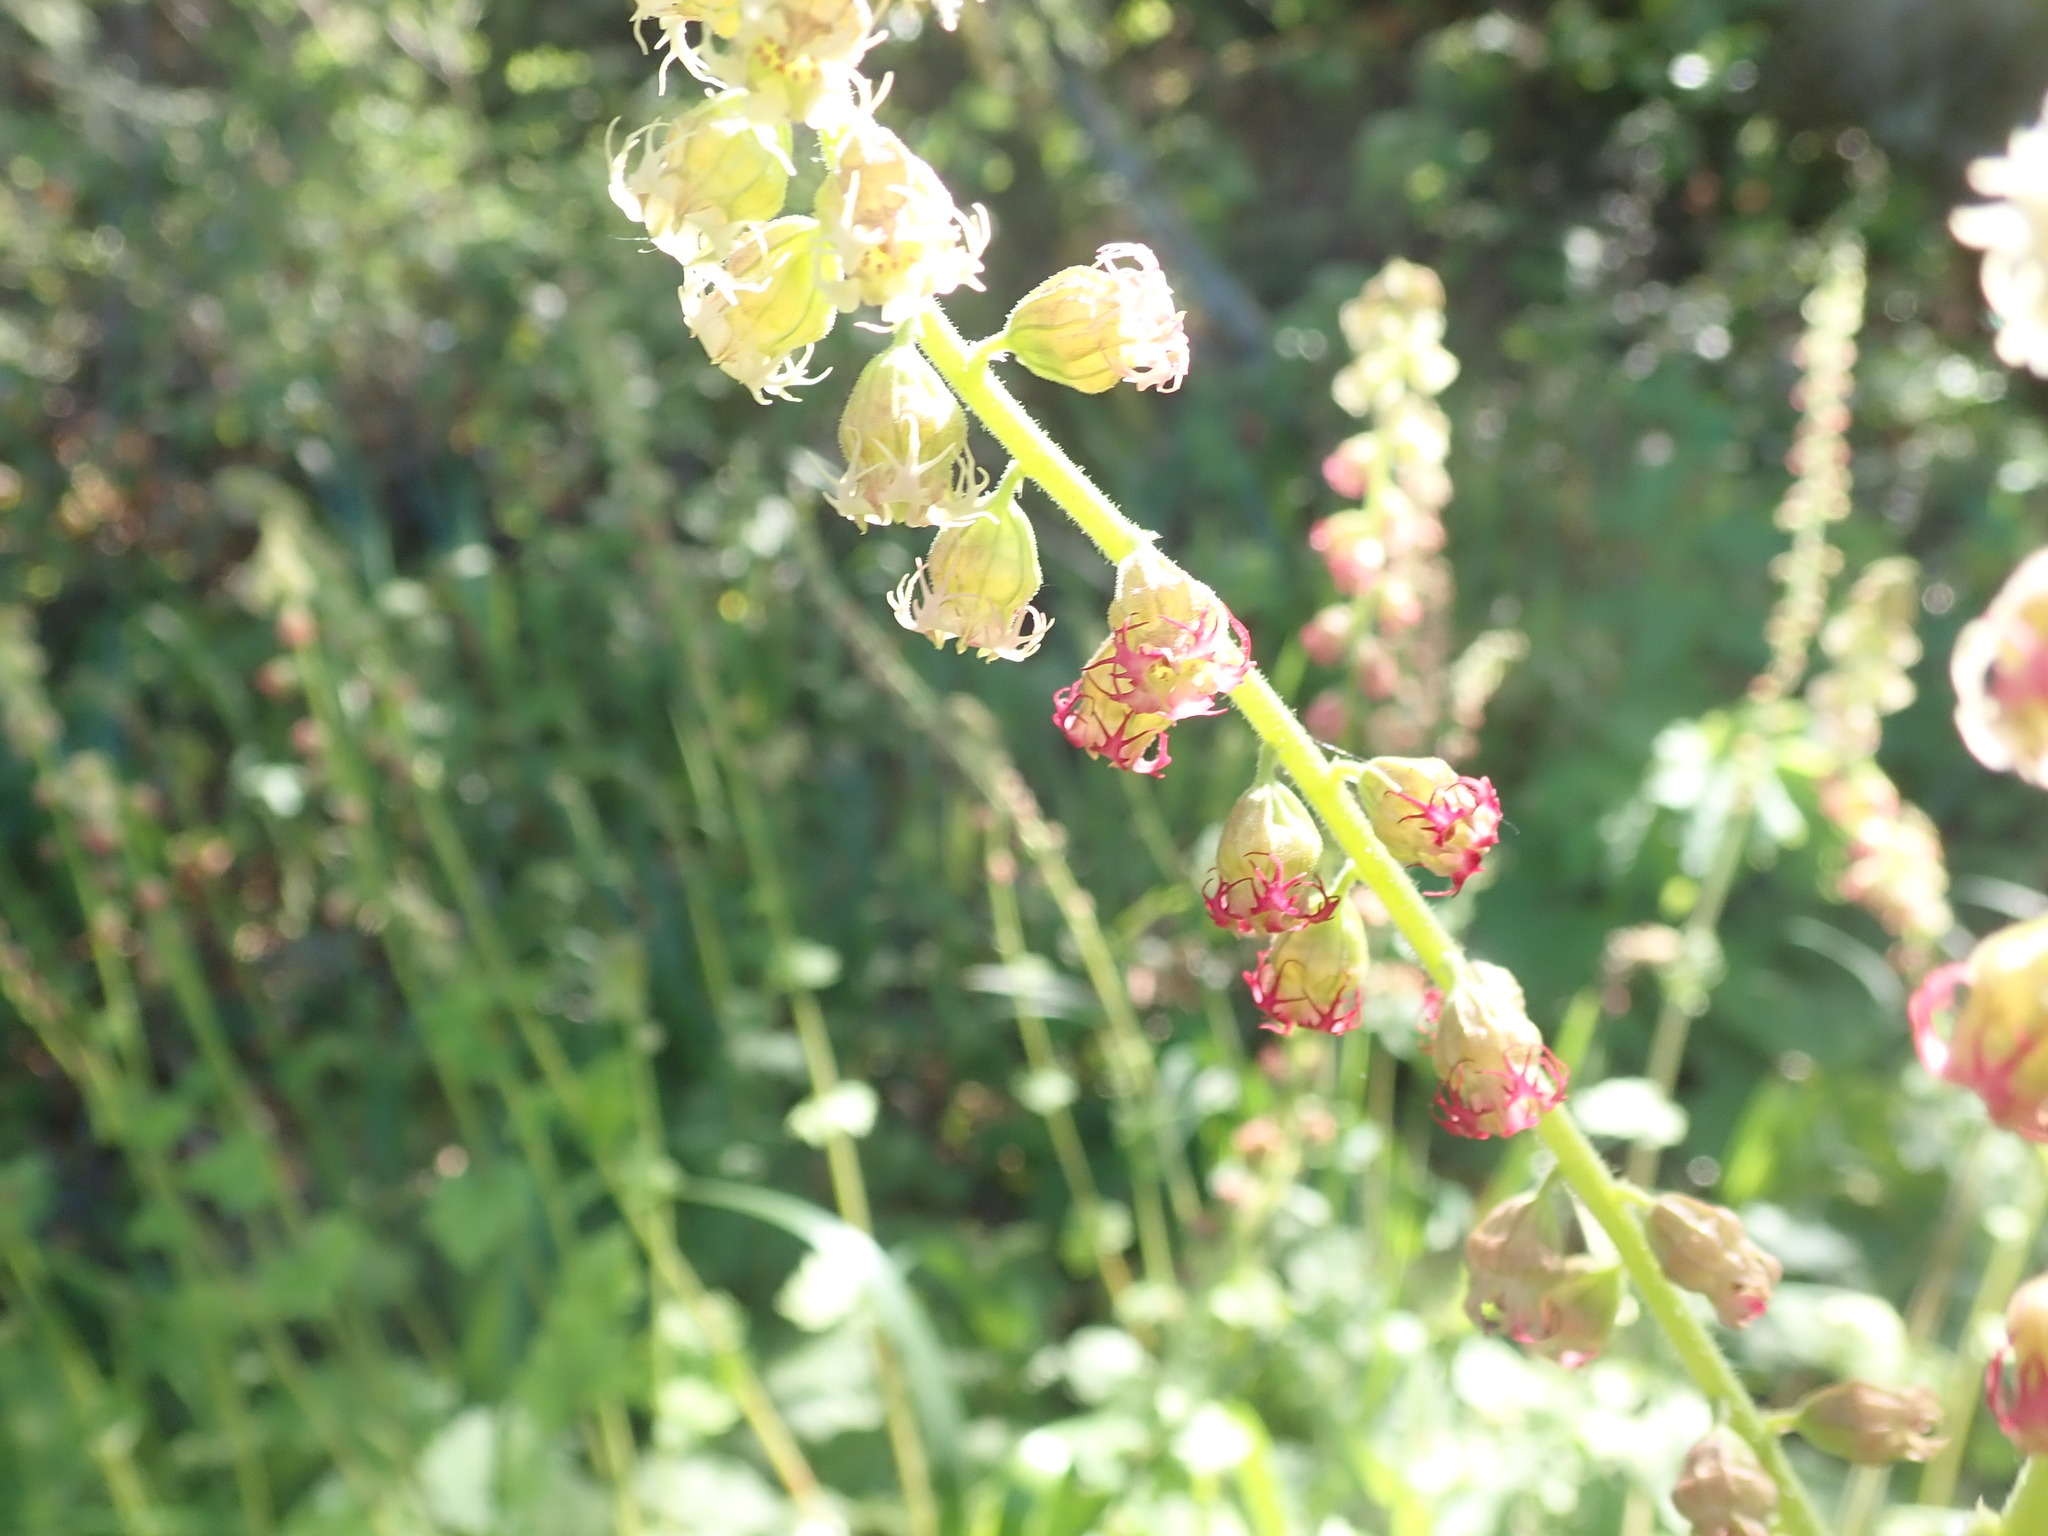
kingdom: Plantae
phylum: Tracheophyta
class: Magnoliopsida
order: Saxifragales
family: Saxifragaceae
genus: Tellima
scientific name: Tellima grandiflora
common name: Fringecups
